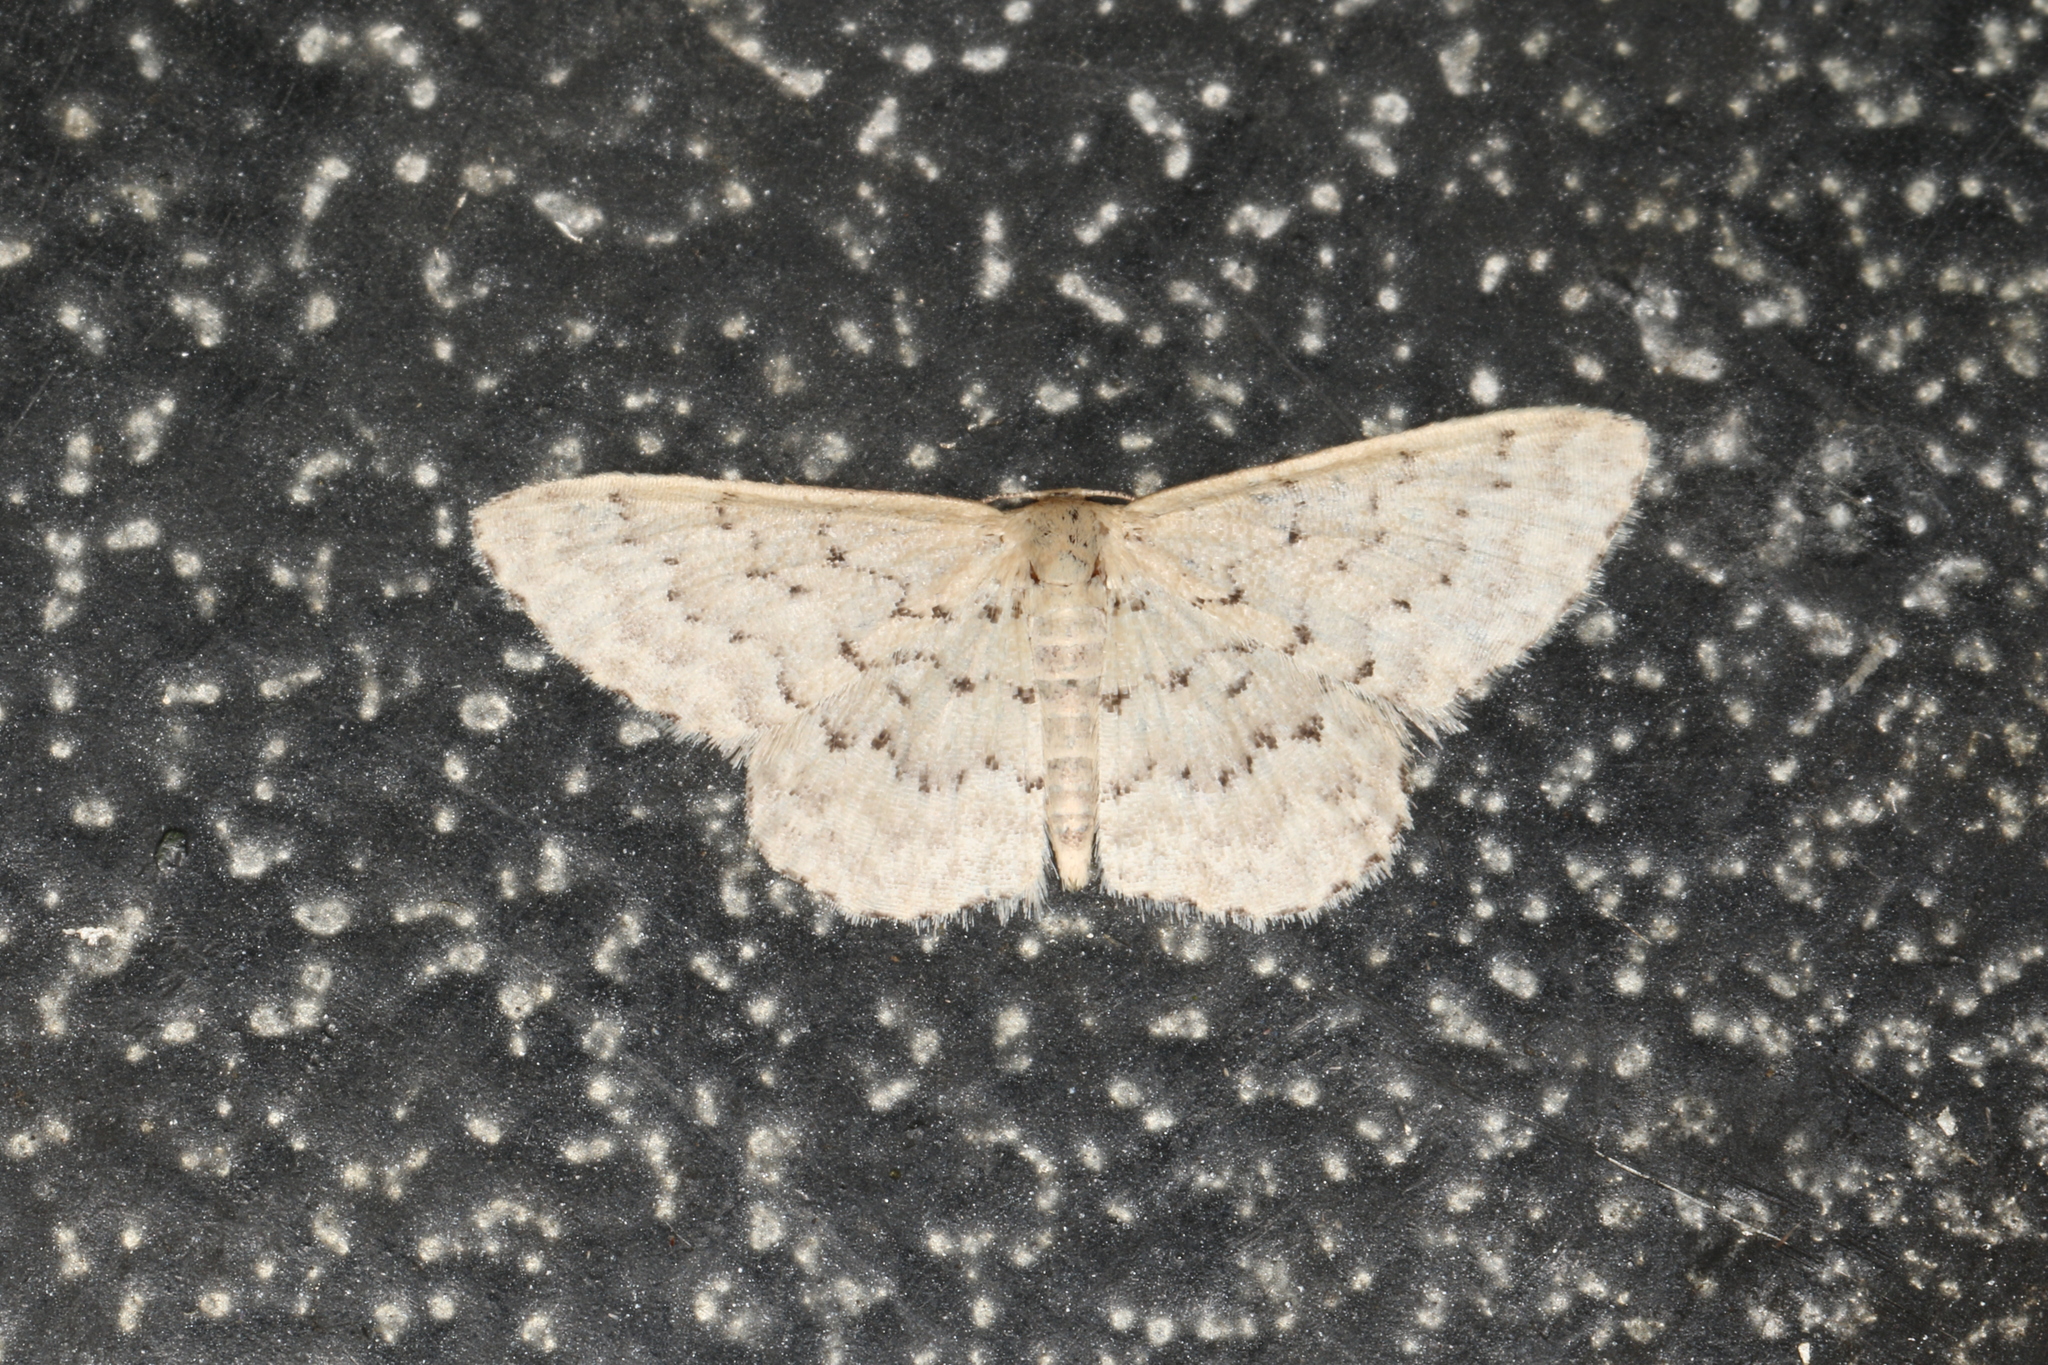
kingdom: Animalia
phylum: Arthropoda
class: Insecta
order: Lepidoptera
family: Geometridae
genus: Idaea
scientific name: Idaea philocosma
